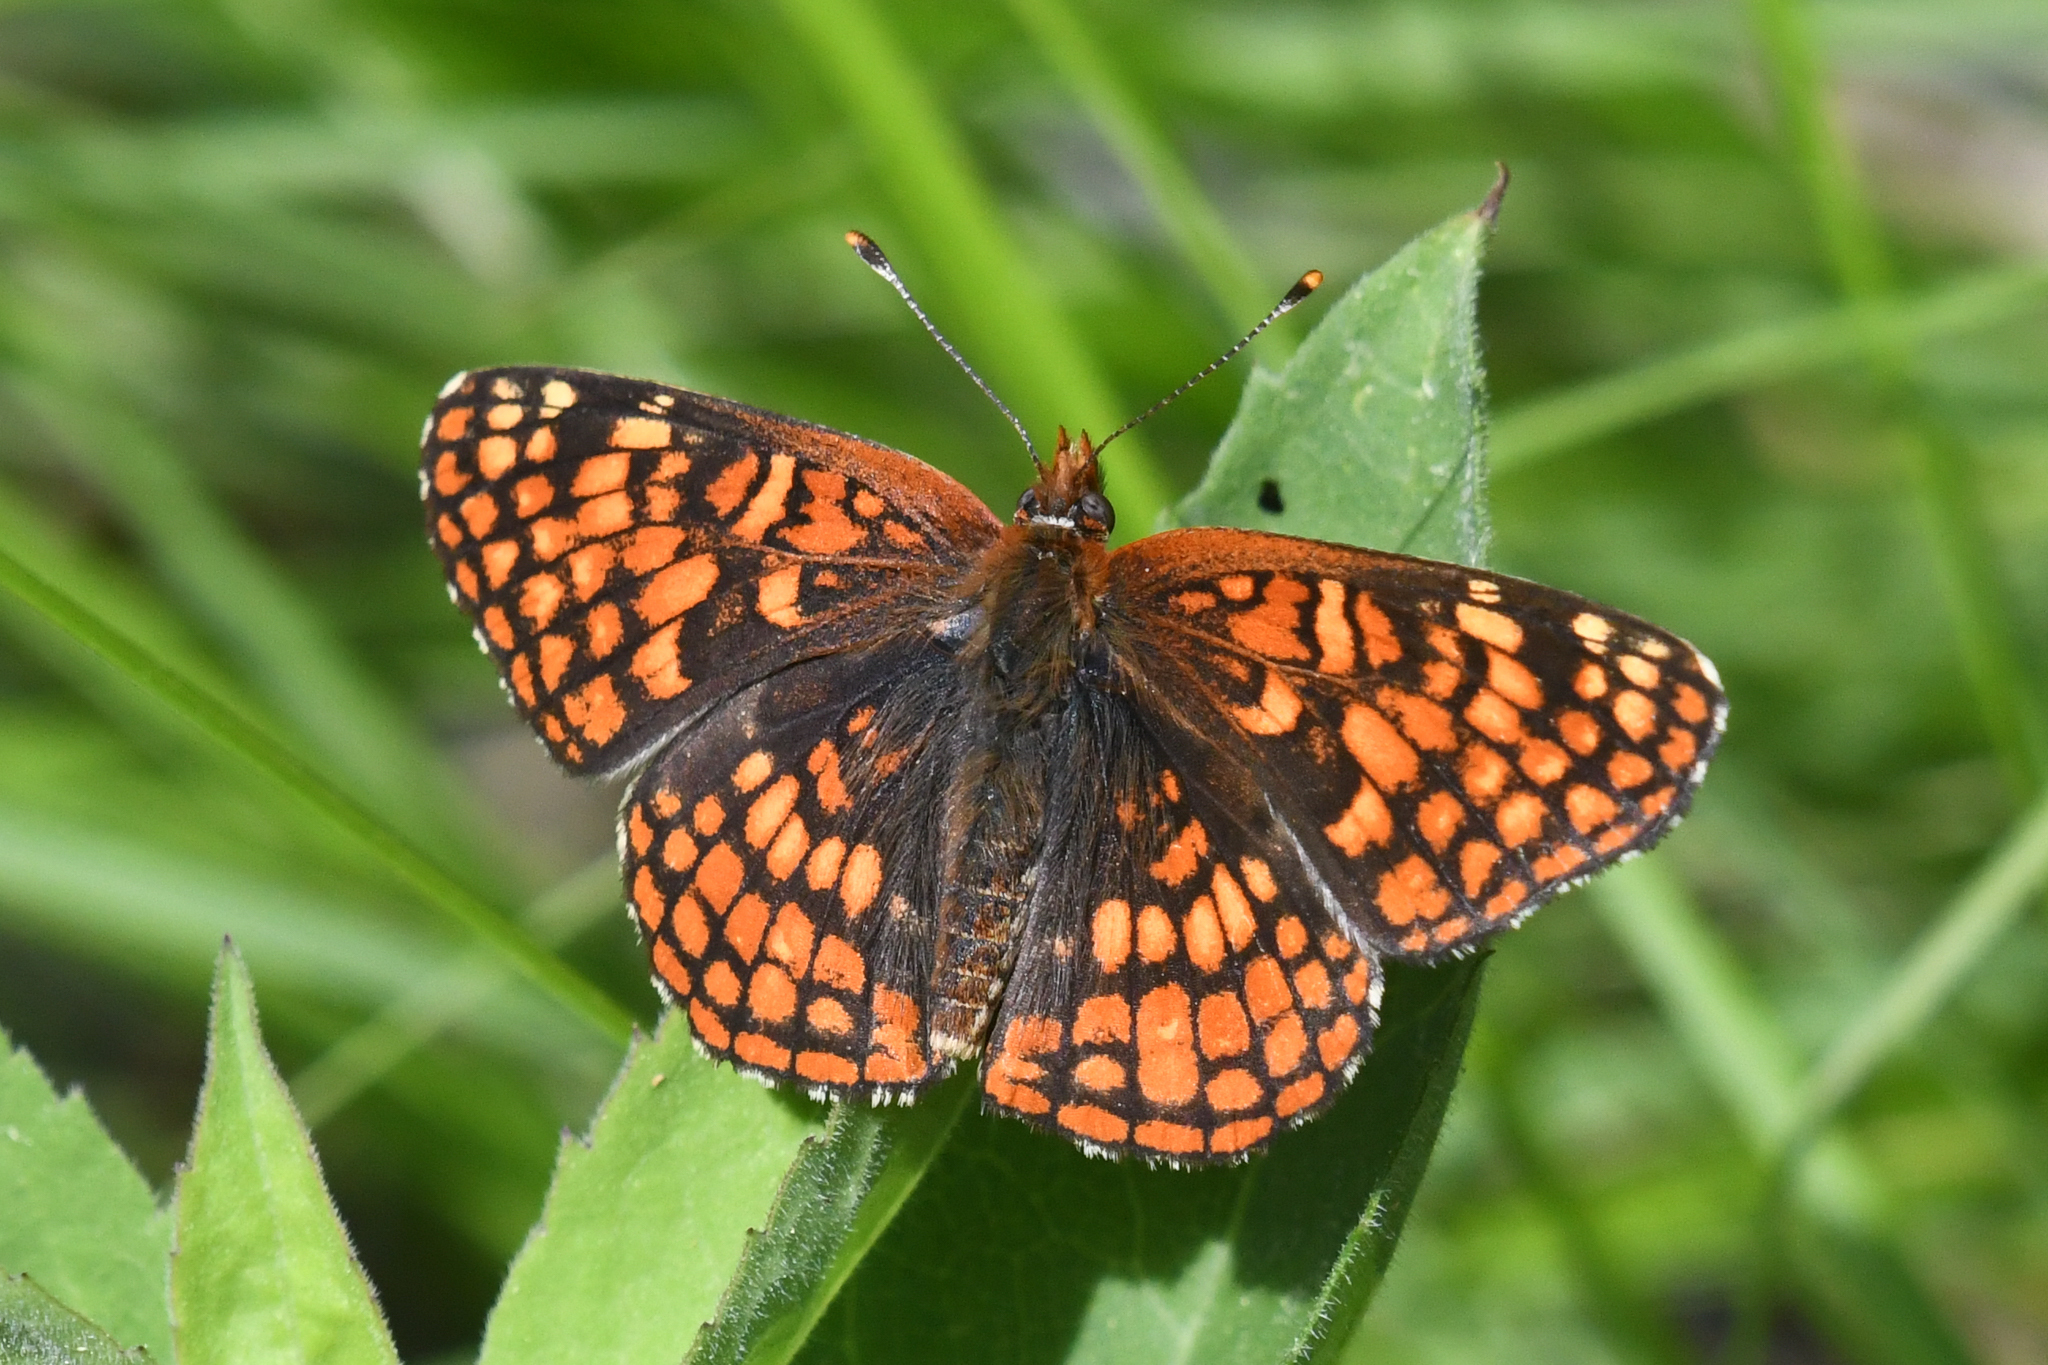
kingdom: Animalia
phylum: Arthropoda
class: Insecta
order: Lepidoptera
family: Nymphalidae
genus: Chlosyne
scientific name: Chlosyne palla
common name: Northern checkerspot
